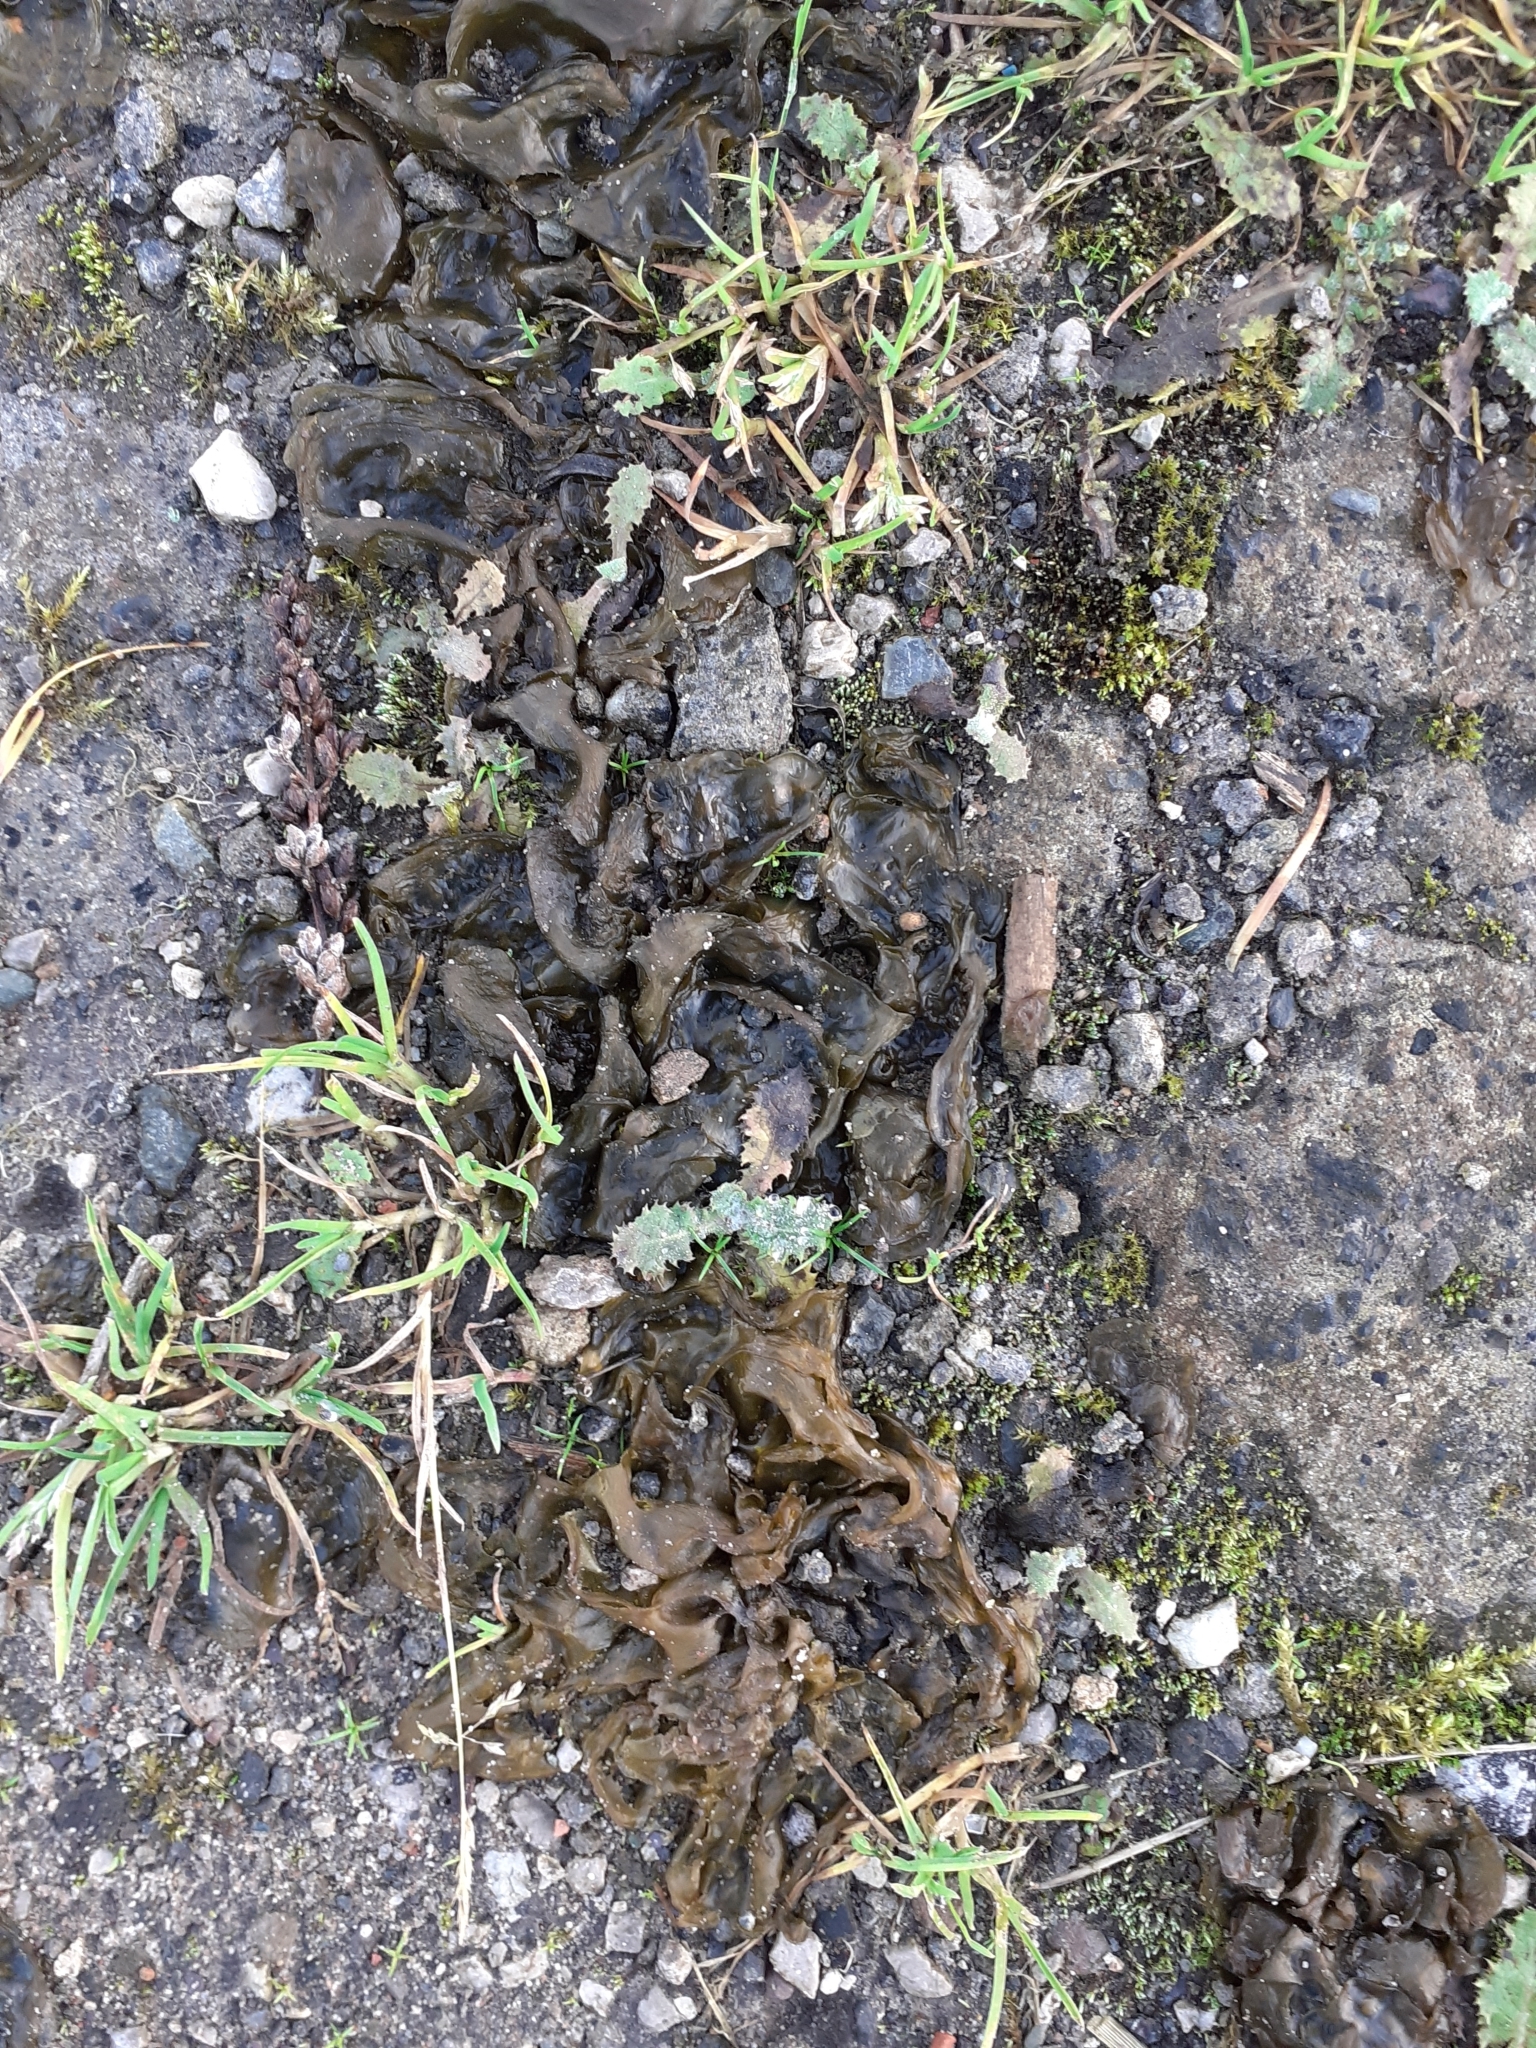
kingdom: Bacteria
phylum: Cyanobacteria
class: Cyanobacteriia
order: Cyanobacteriales
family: Nostocaceae
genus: Nostoc
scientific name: Nostoc commune
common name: Star jelly
